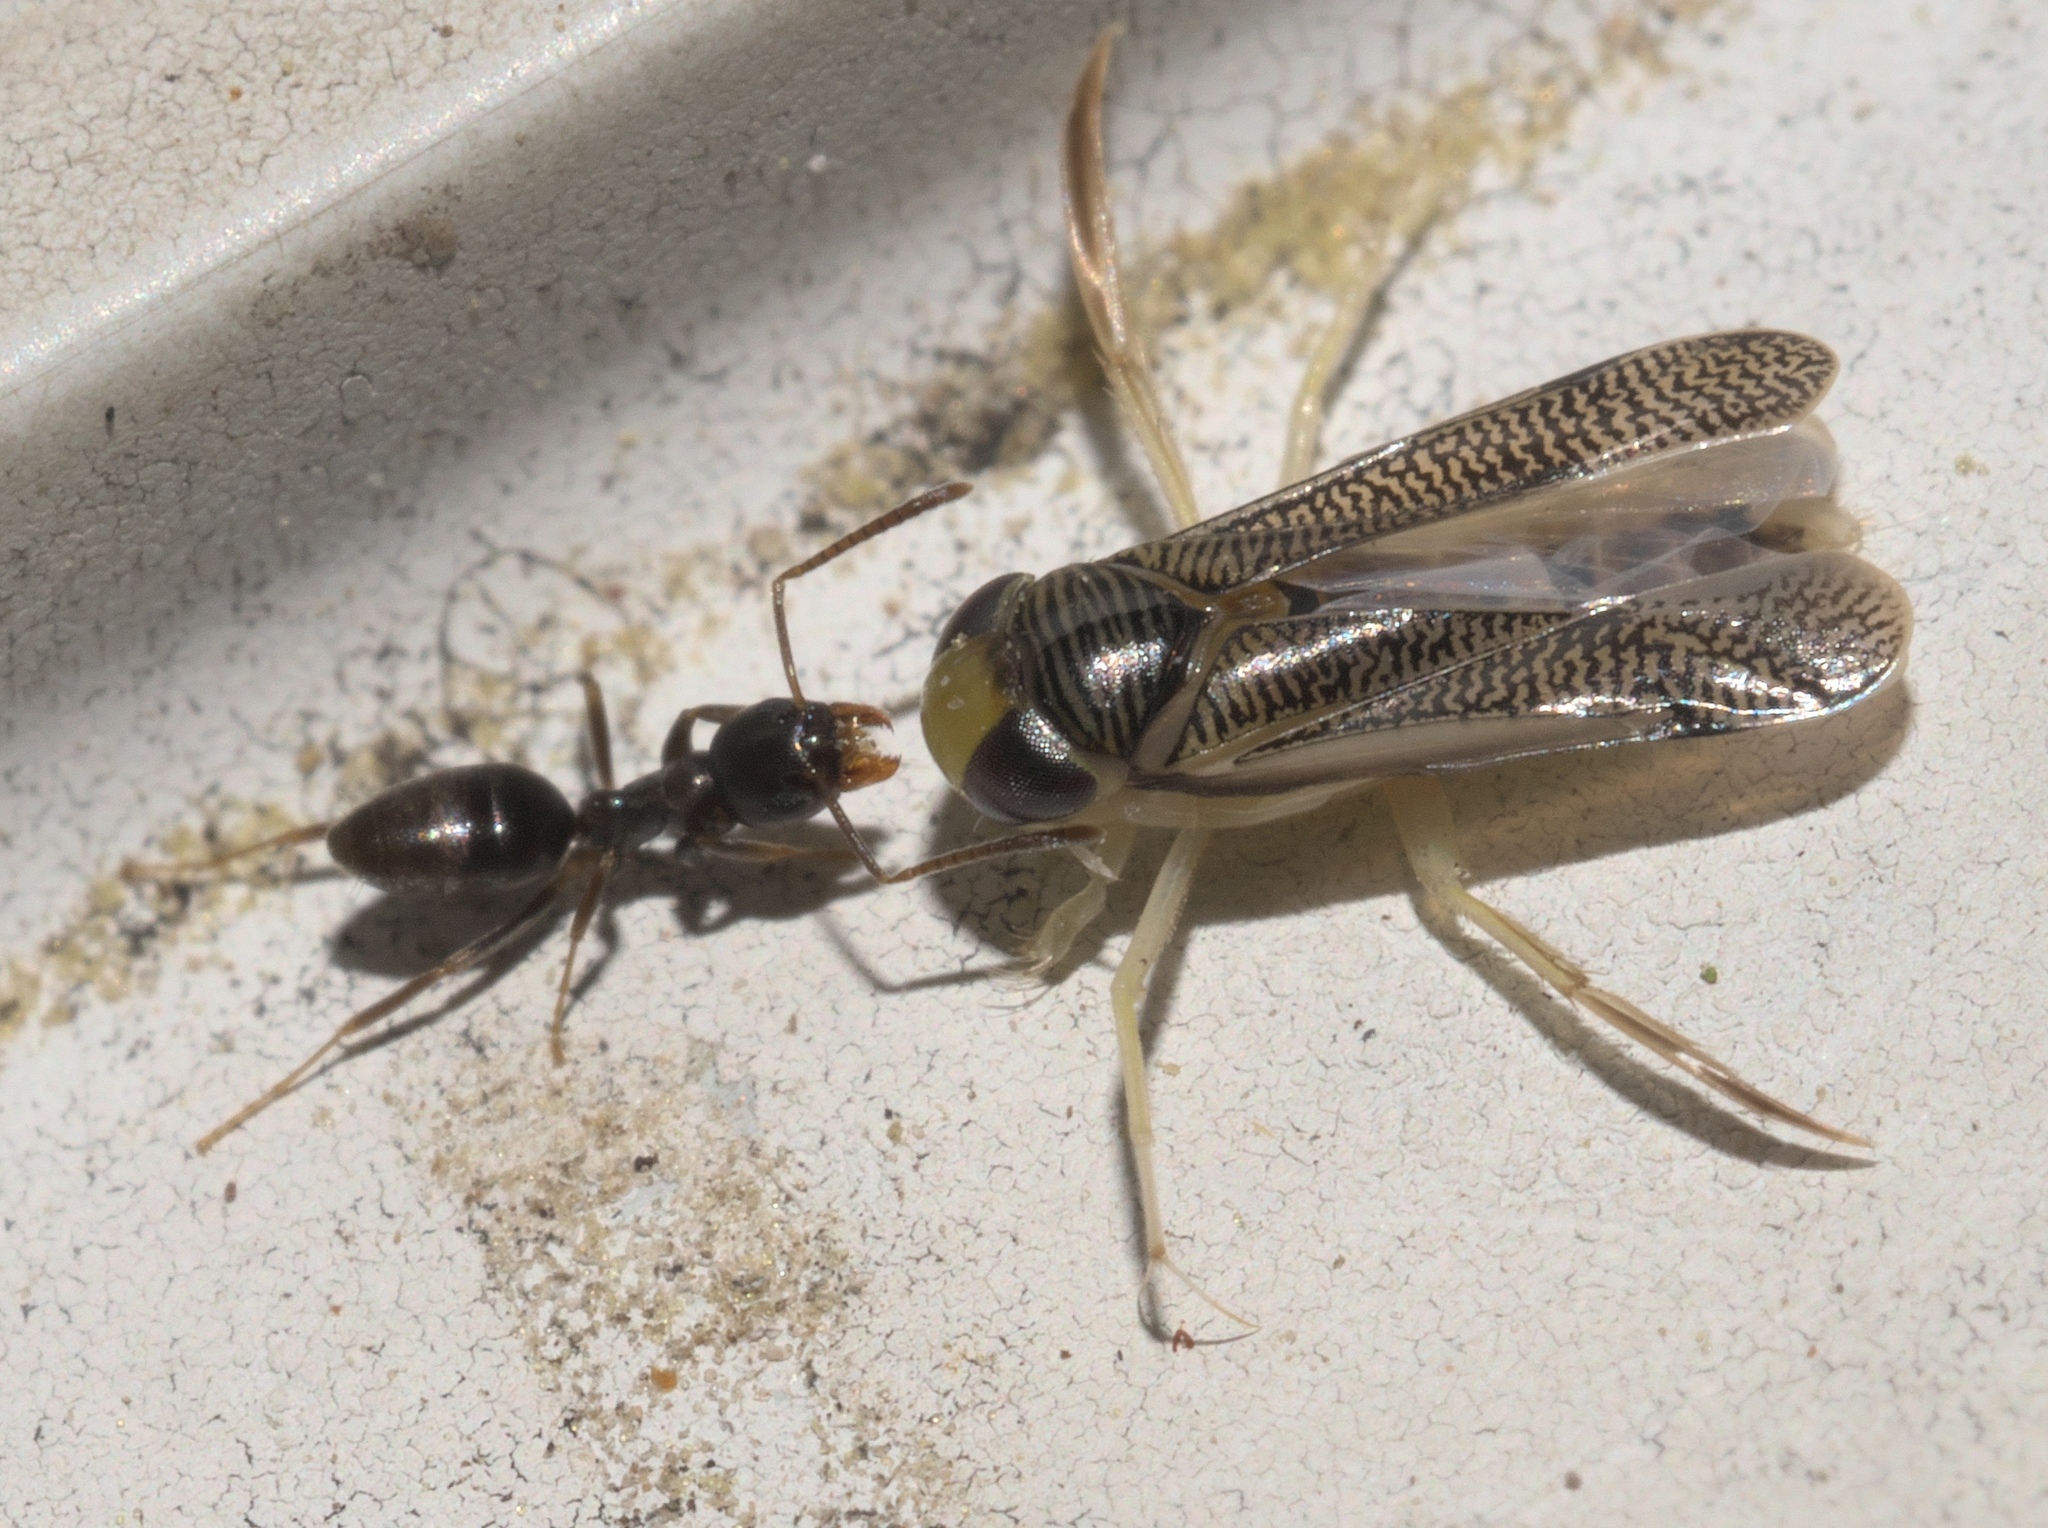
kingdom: Animalia
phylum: Arthropoda
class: Insecta
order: Hymenoptera
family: Formicidae
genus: Tapinoma
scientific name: Tapinoma sessile
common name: Odorous house ant
